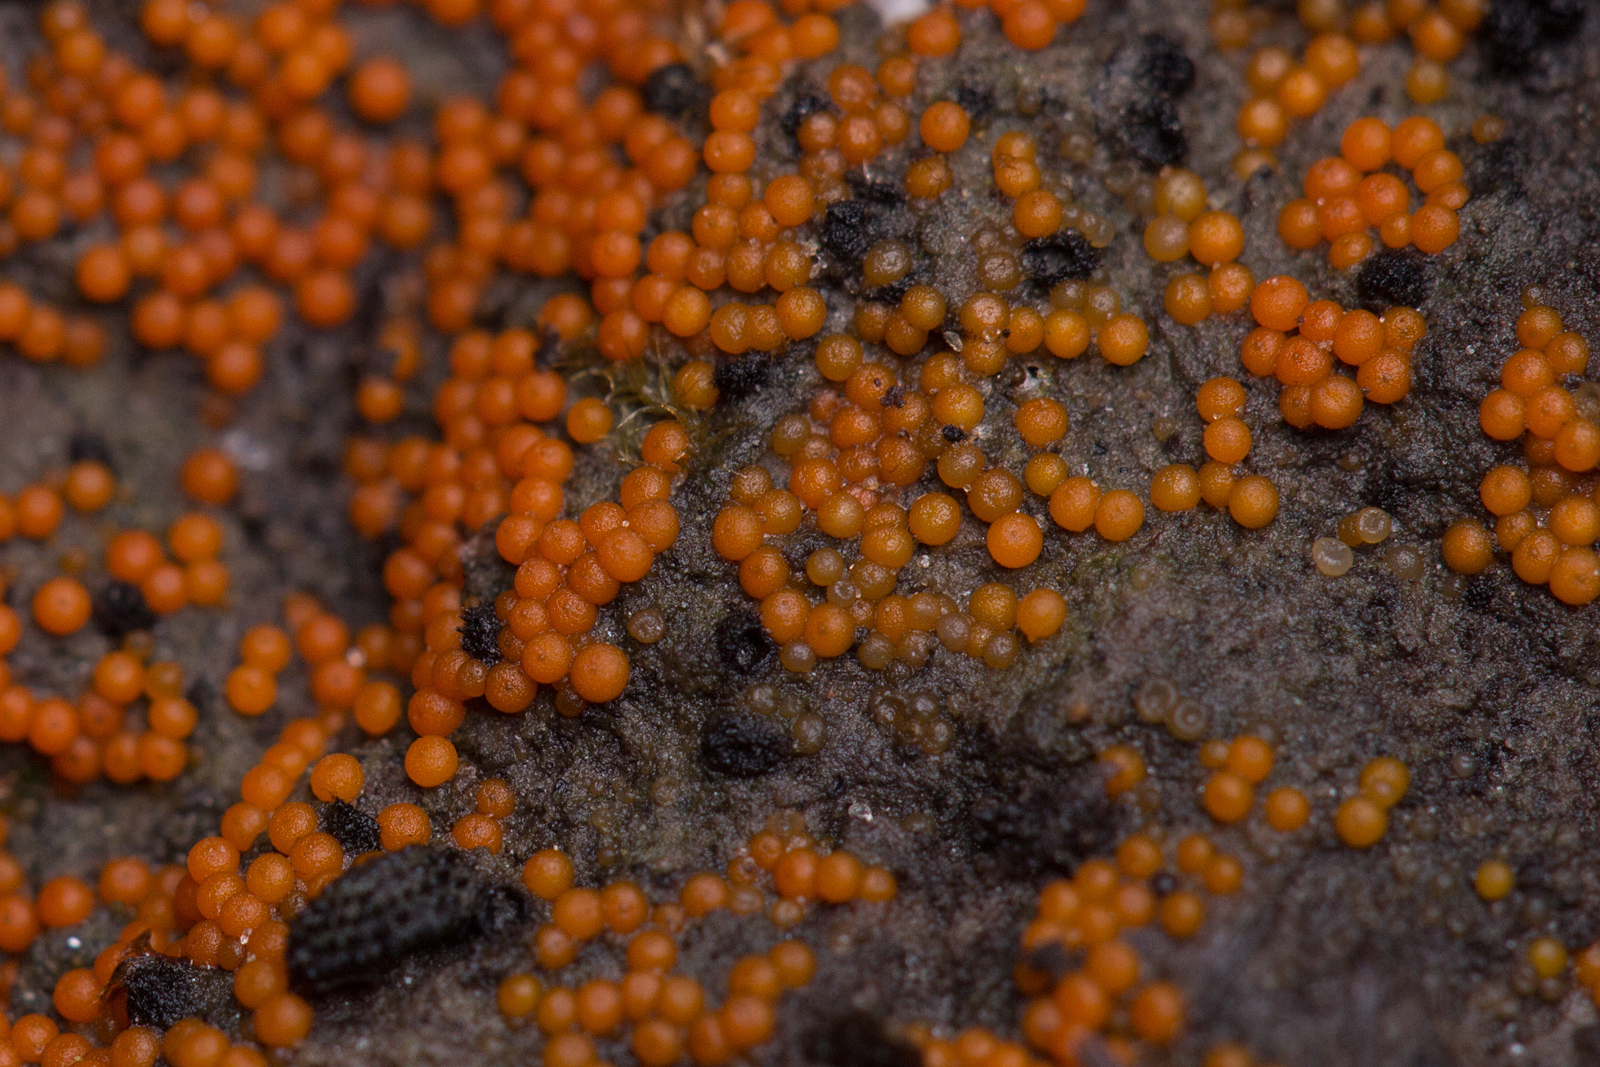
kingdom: Fungi
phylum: Ascomycota
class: Sordariomycetes
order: Hypocreales
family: Nectriaceae
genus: Hydropisphaera
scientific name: Hydropisphaera peziza
